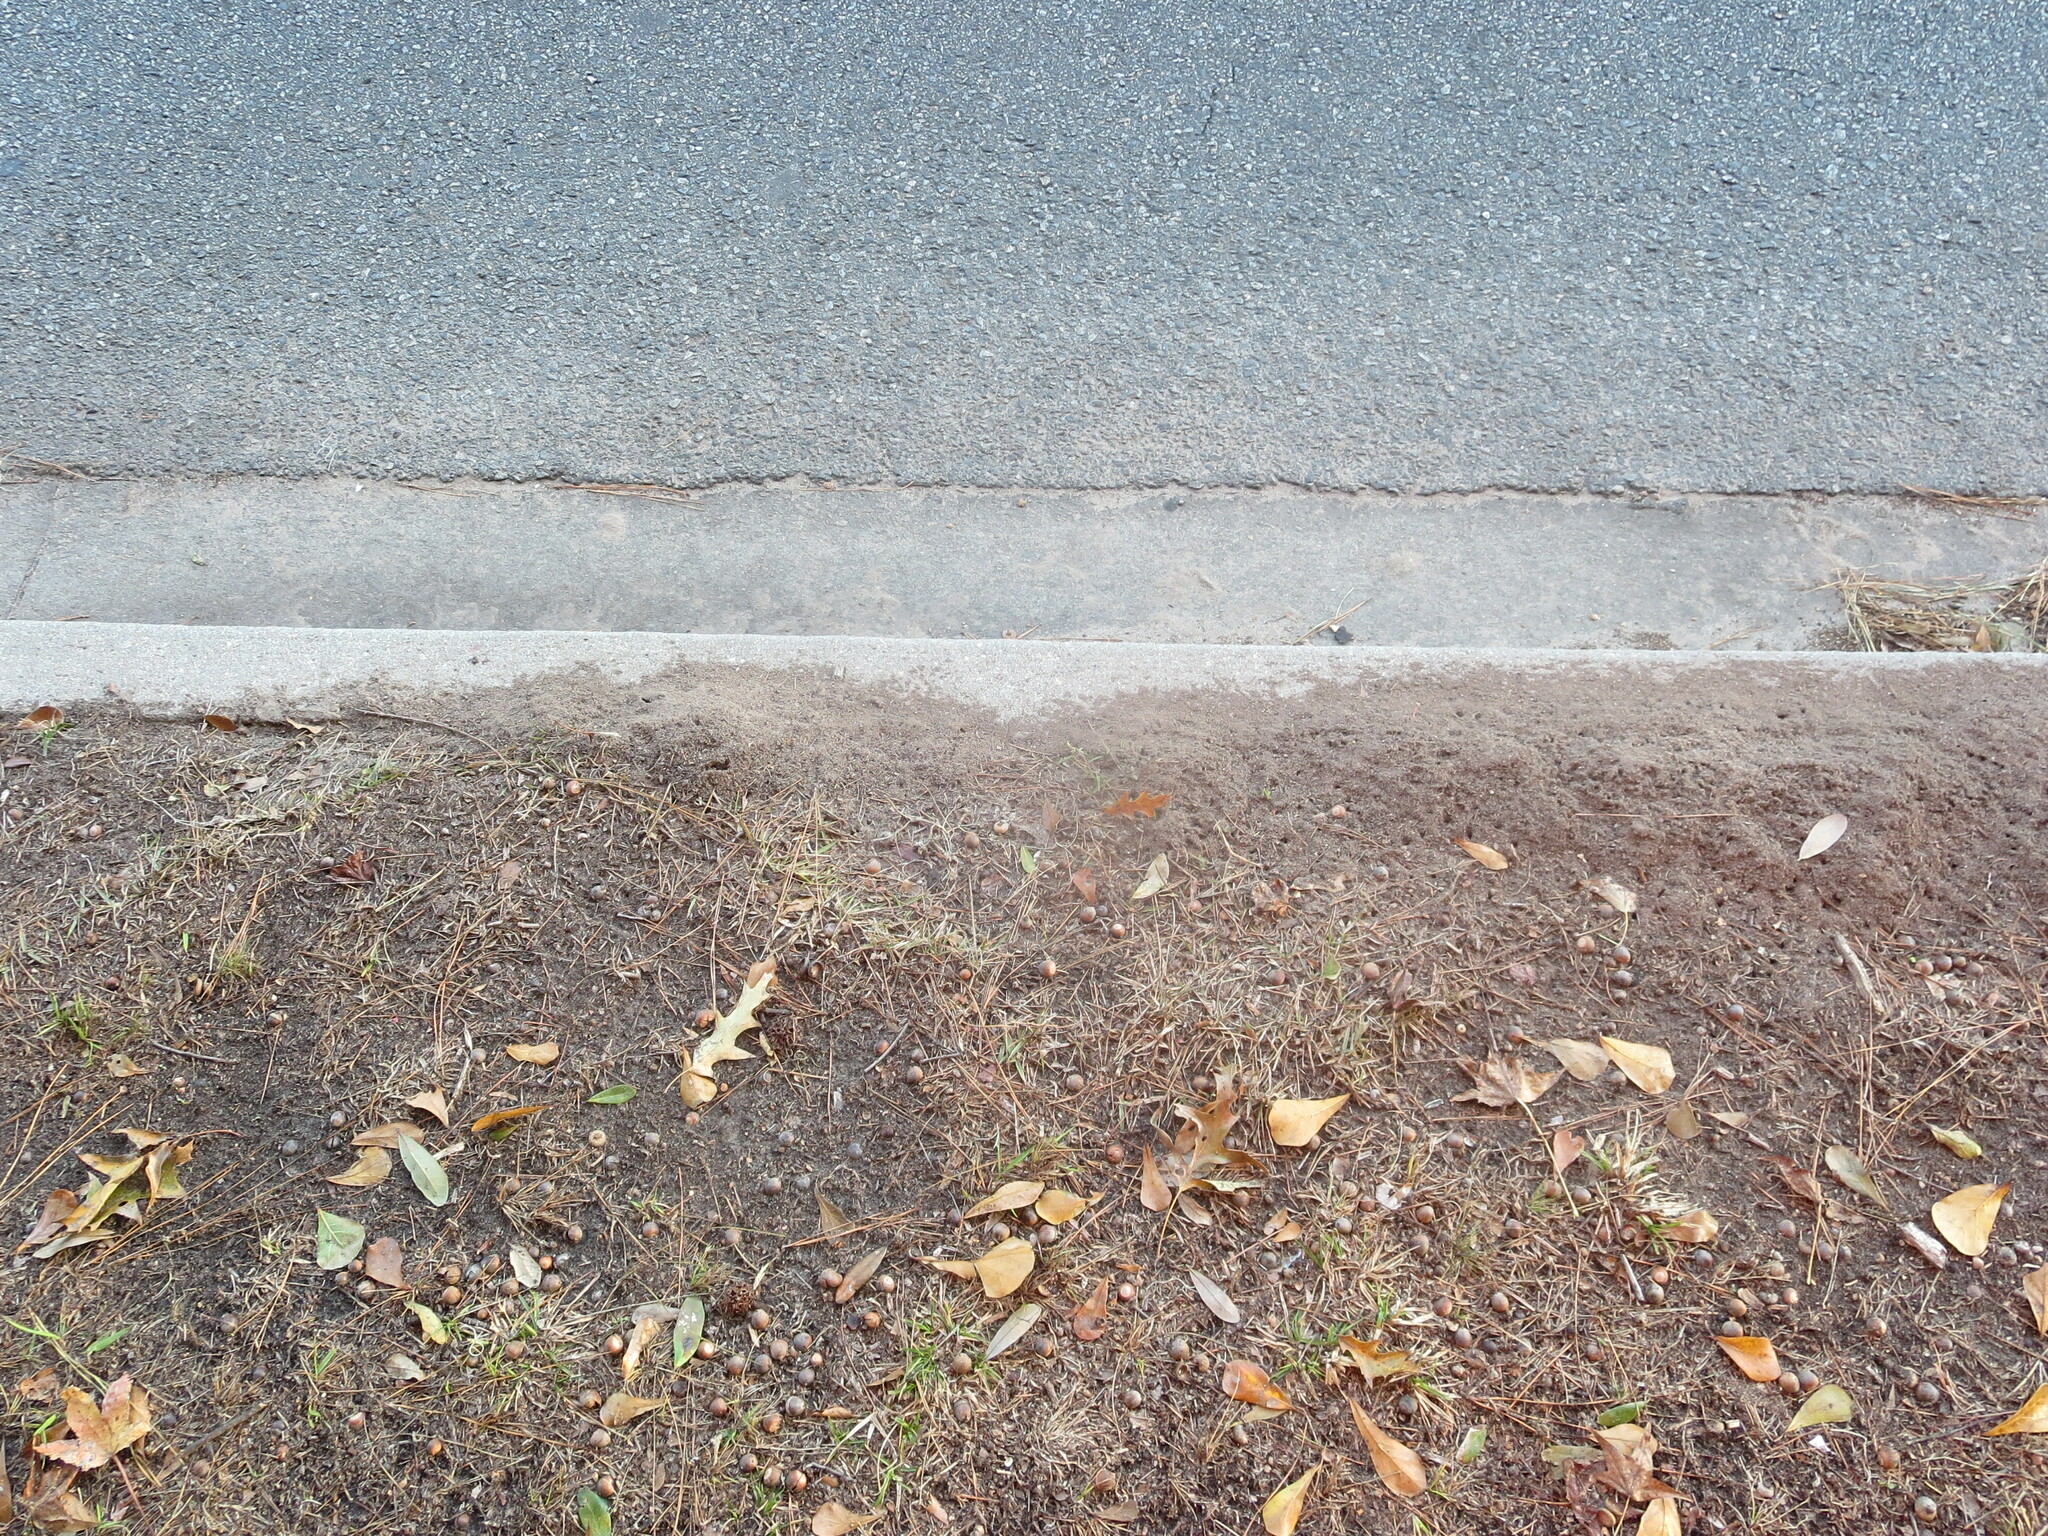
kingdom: Animalia
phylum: Arthropoda
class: Insecta
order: Hymenoptera
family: Formicidae
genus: Solenopsis
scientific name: Solenopsis invicta
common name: Red imported fire ant
